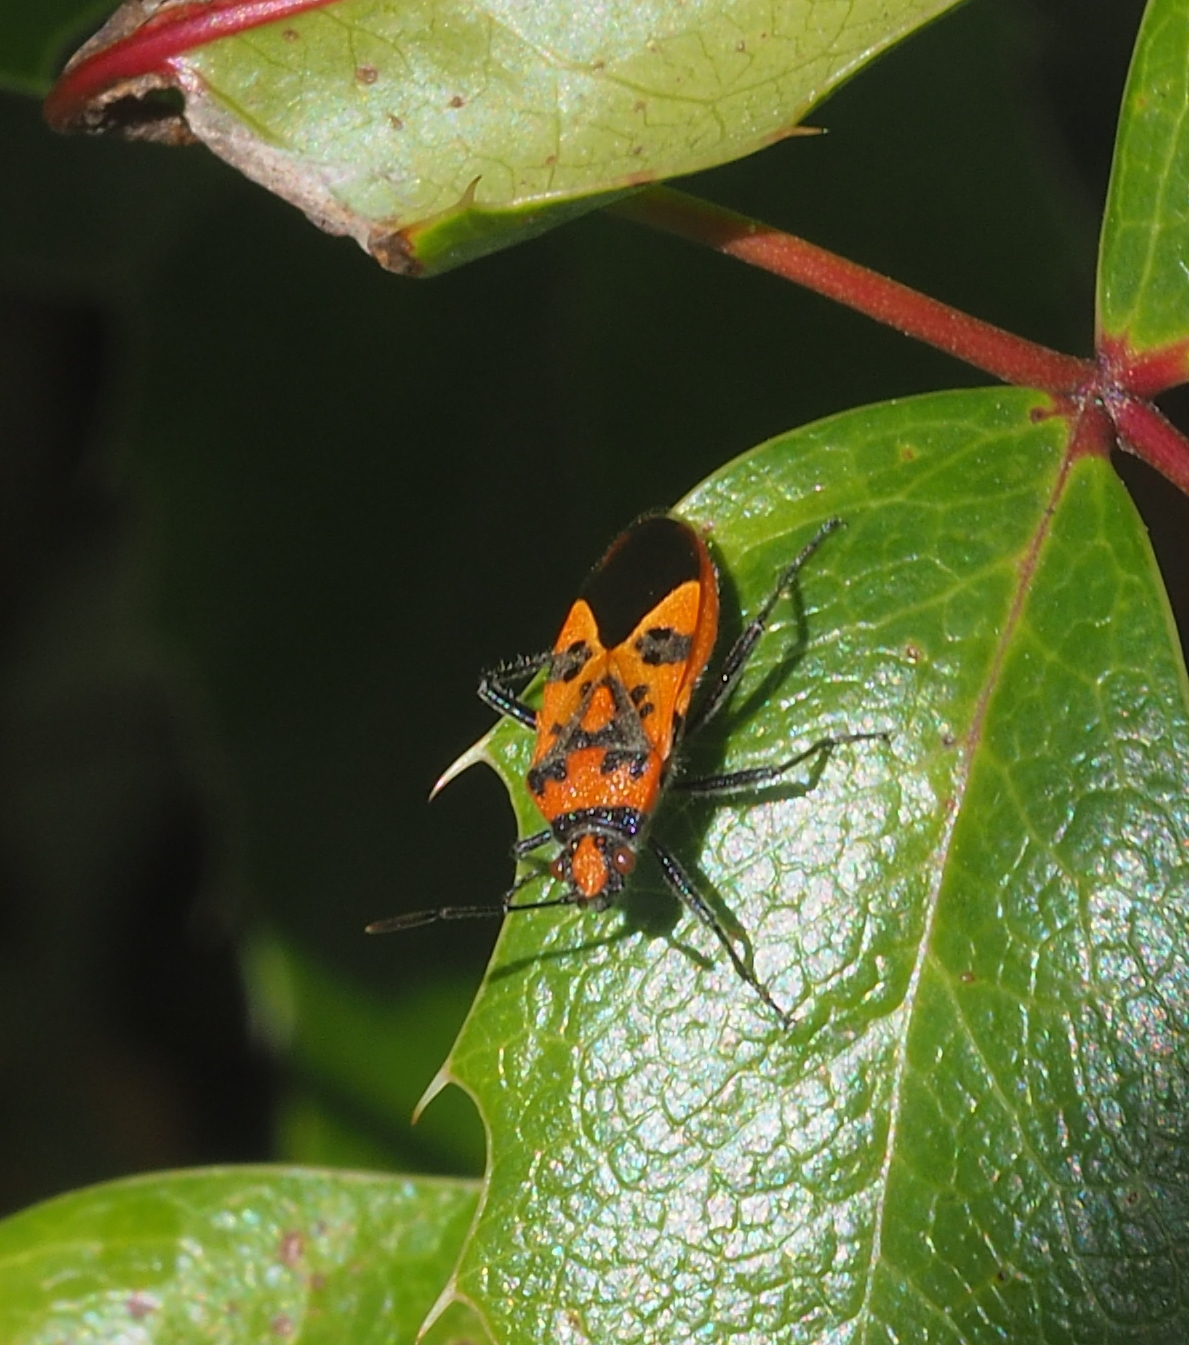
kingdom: Animalia
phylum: Arthropoda
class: Insecta
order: Hemiptera
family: Rhopalidae
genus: Corizus
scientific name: Corizus hyoscyami
